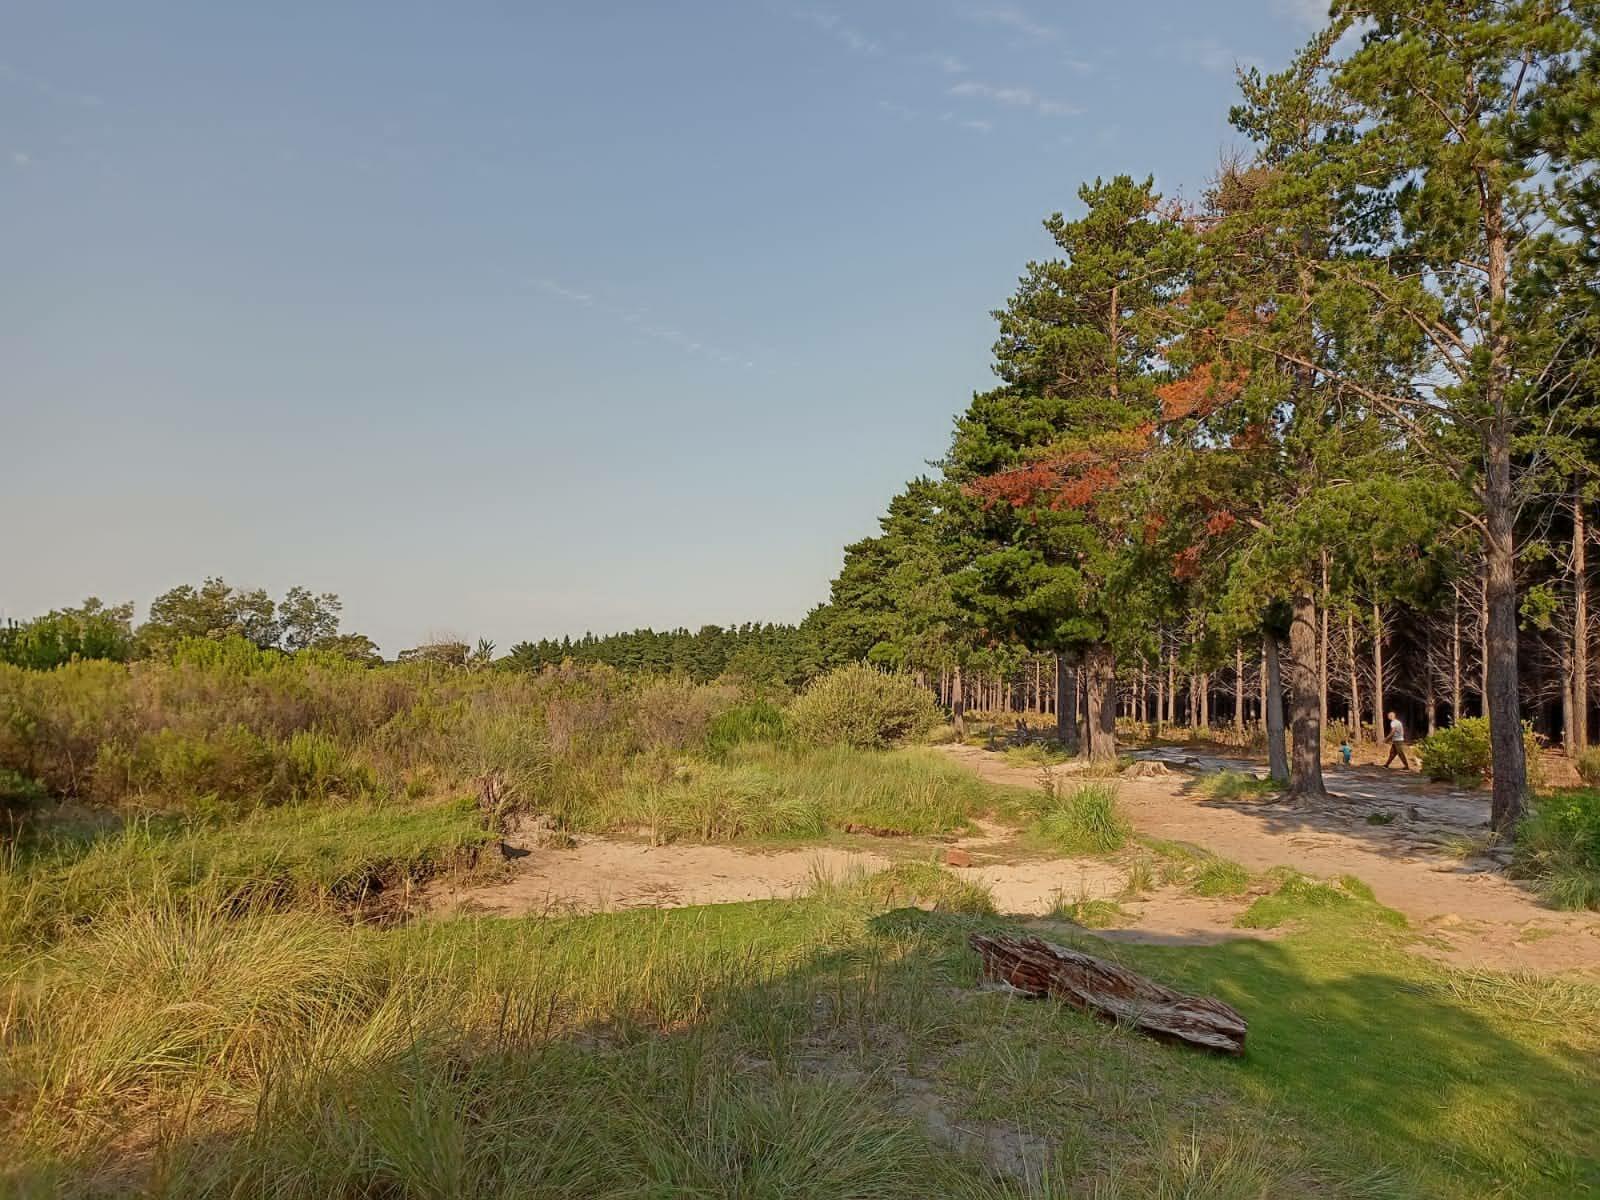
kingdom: Plantae
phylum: Tracheophyta
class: Liliopsida
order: Poales
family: Poaceae
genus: Eragrostis
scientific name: Eragrostis curvula
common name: African love-grass
